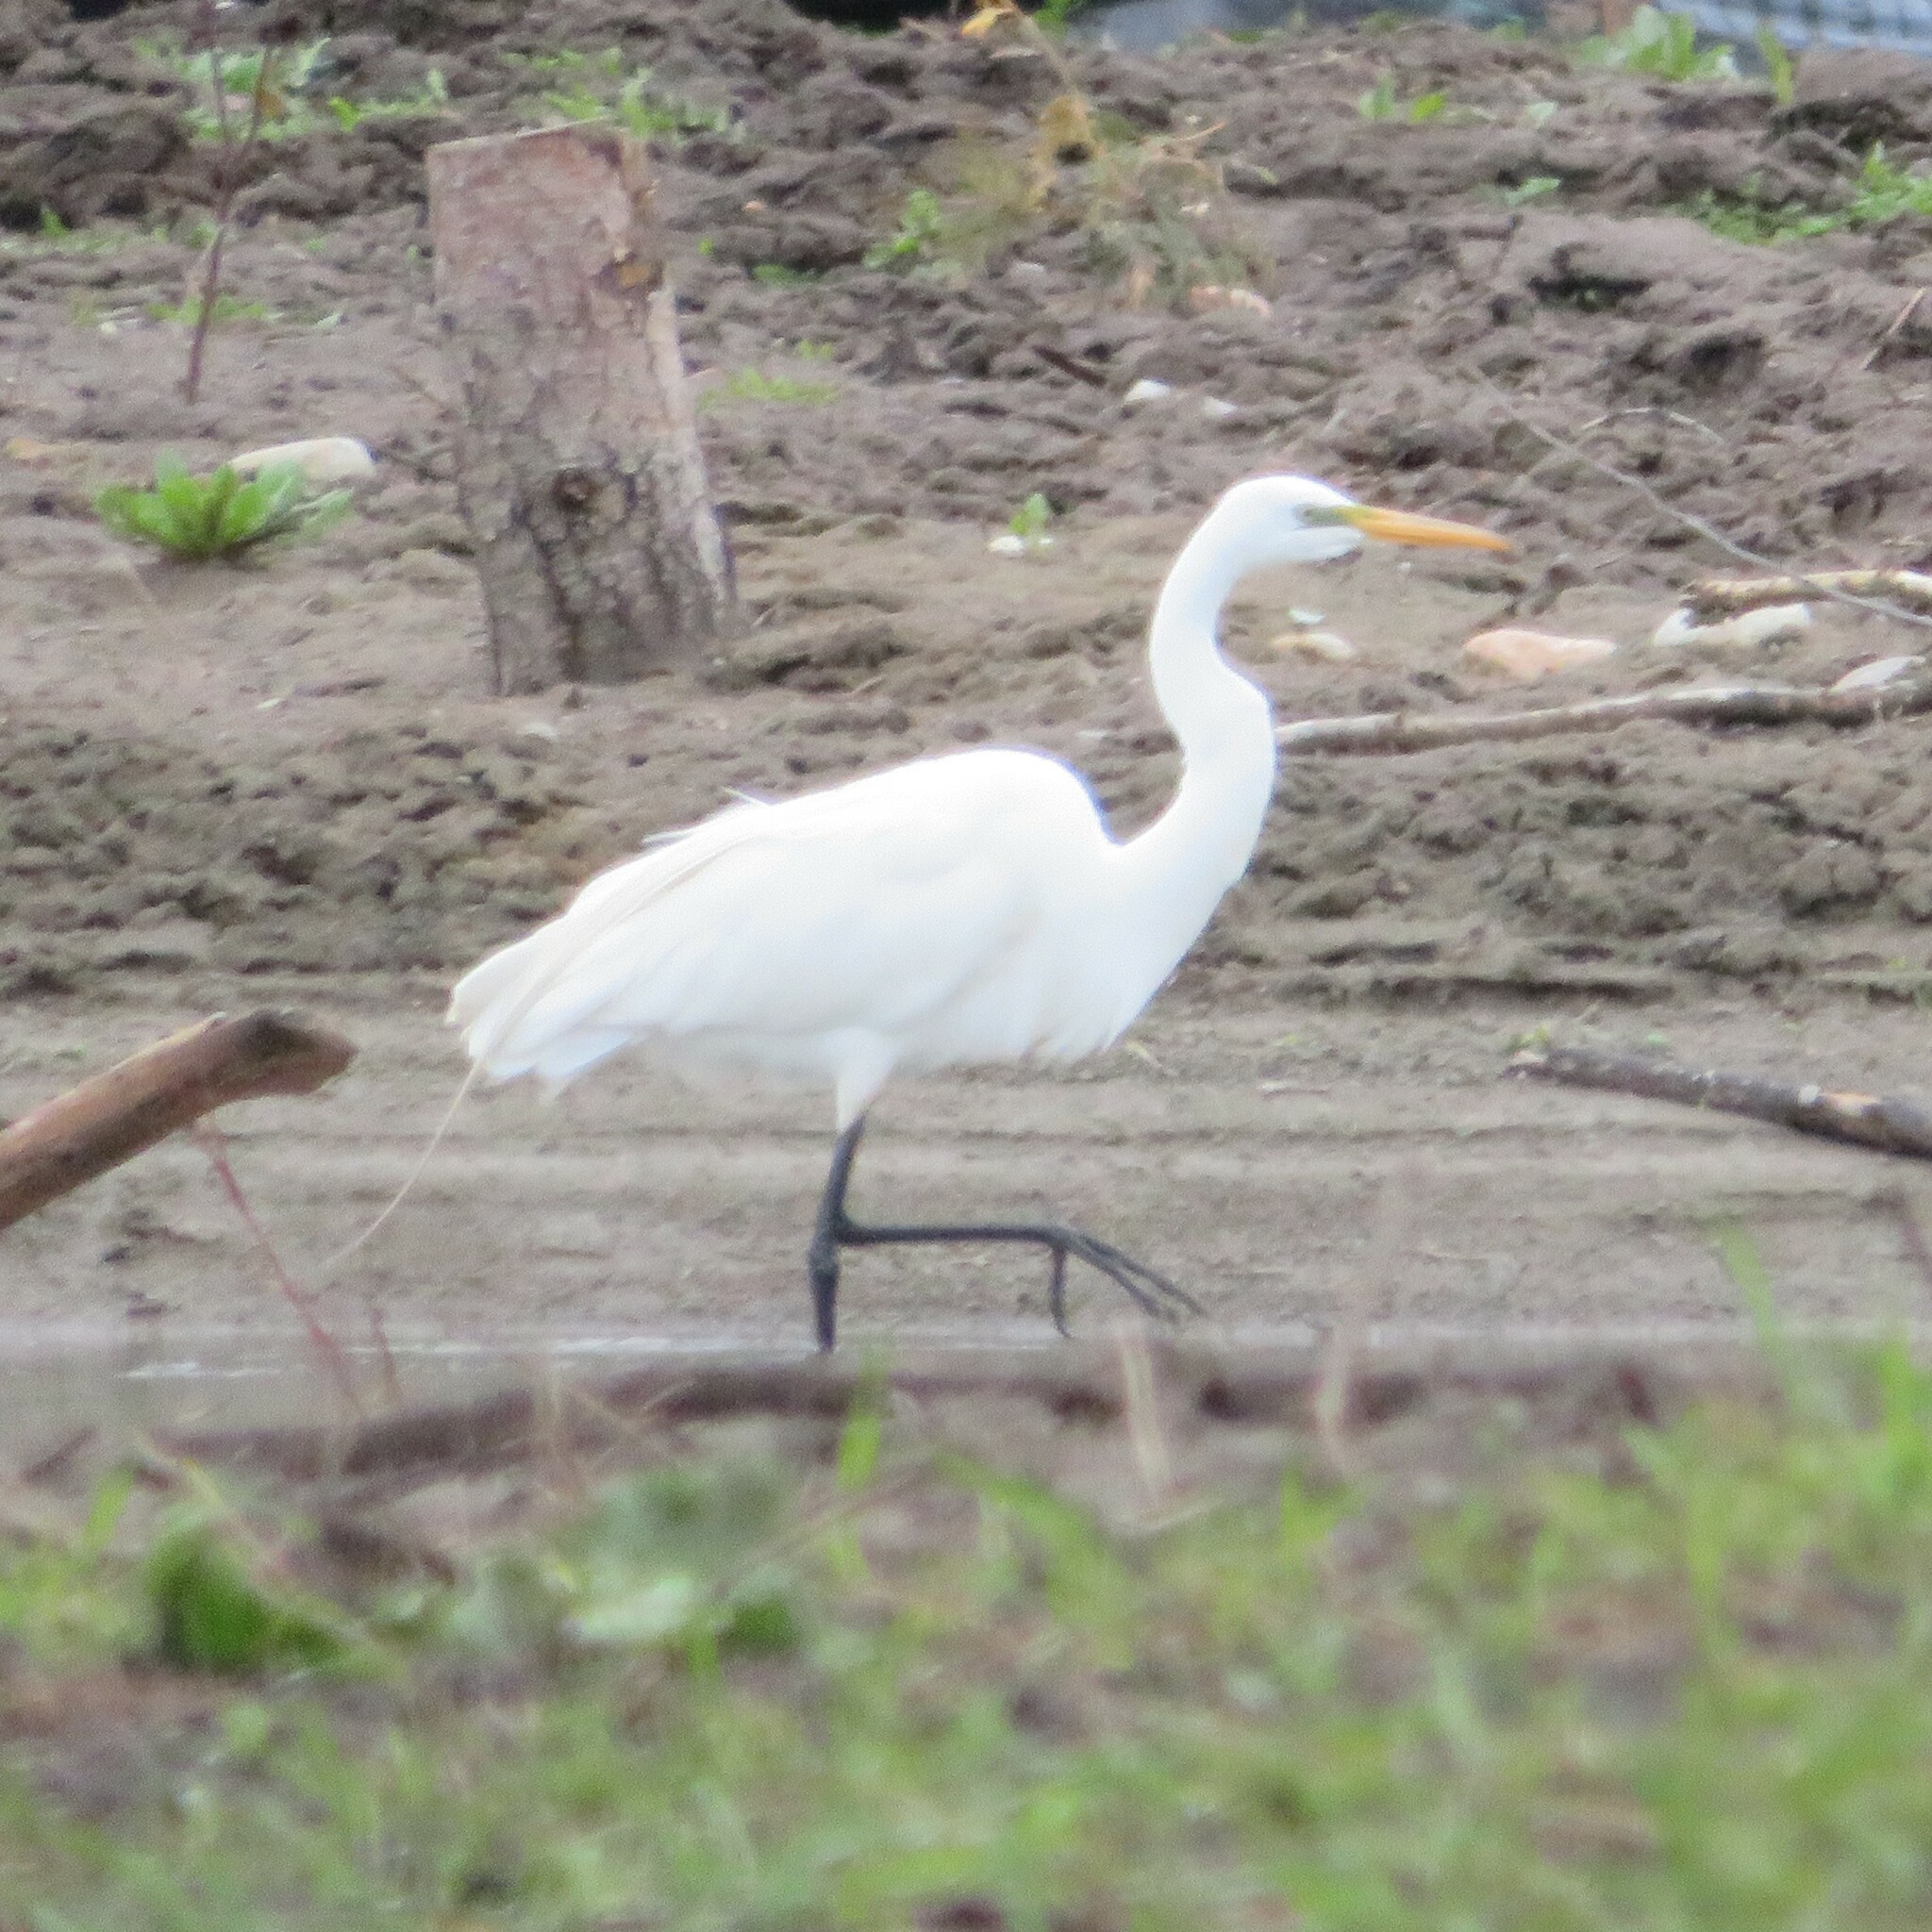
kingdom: Animalia
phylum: Chordata
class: Aves
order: Pelecaniformes
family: Ardeidae
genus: Ardea
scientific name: Ardea alba
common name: Great egret
